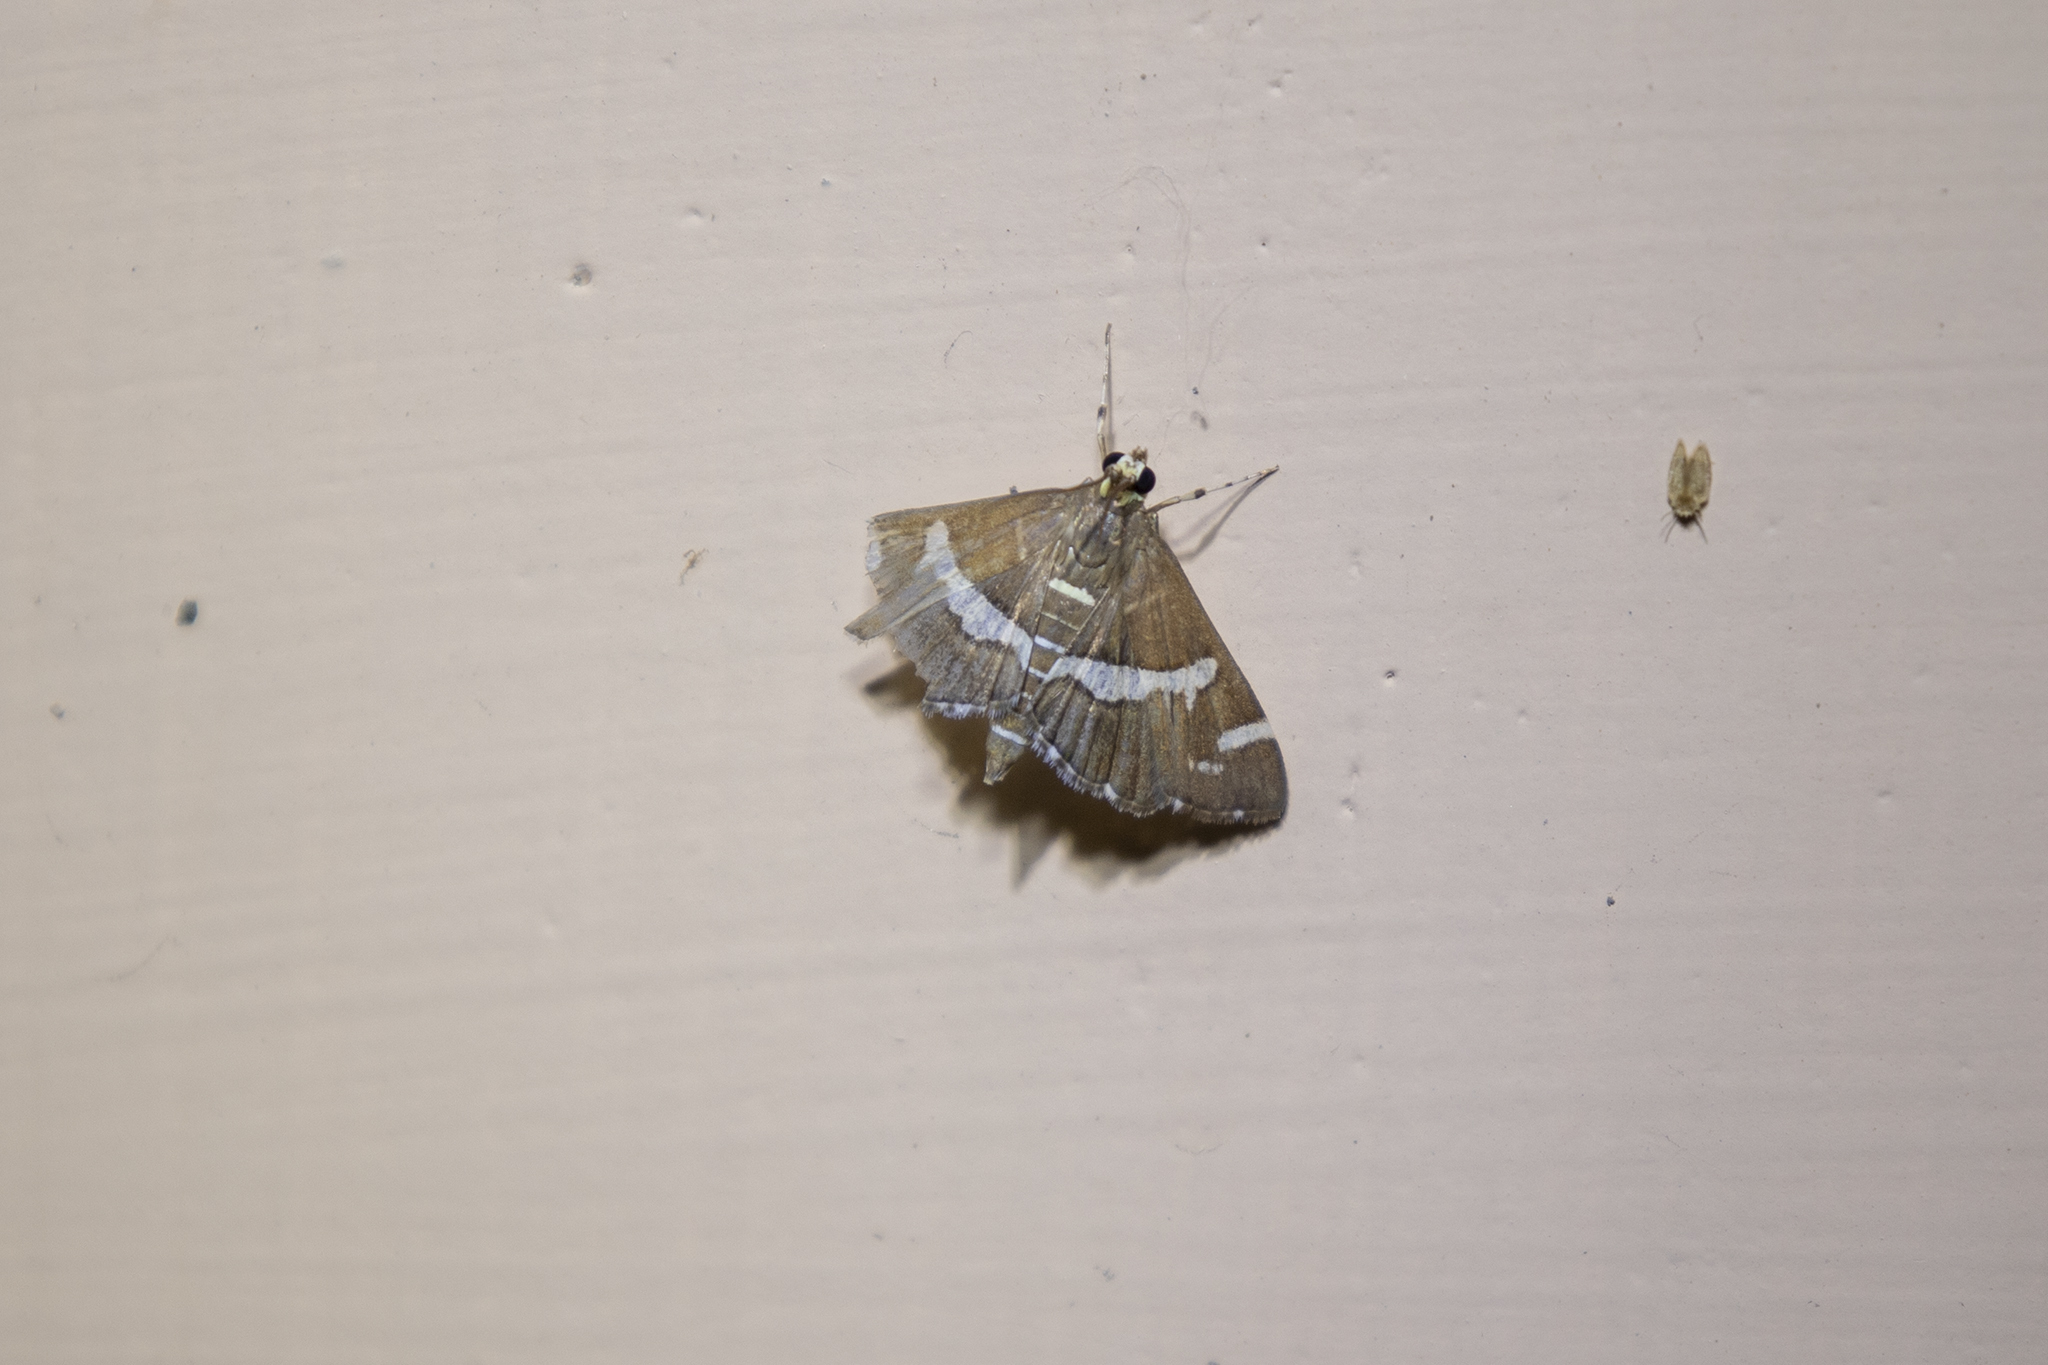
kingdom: Animalia
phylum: Arthropoda
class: Insecta
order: Lepidoptera
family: Crambidae
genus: Spoladea
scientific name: Spoladea recurvalis
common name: Beet webworm moth
